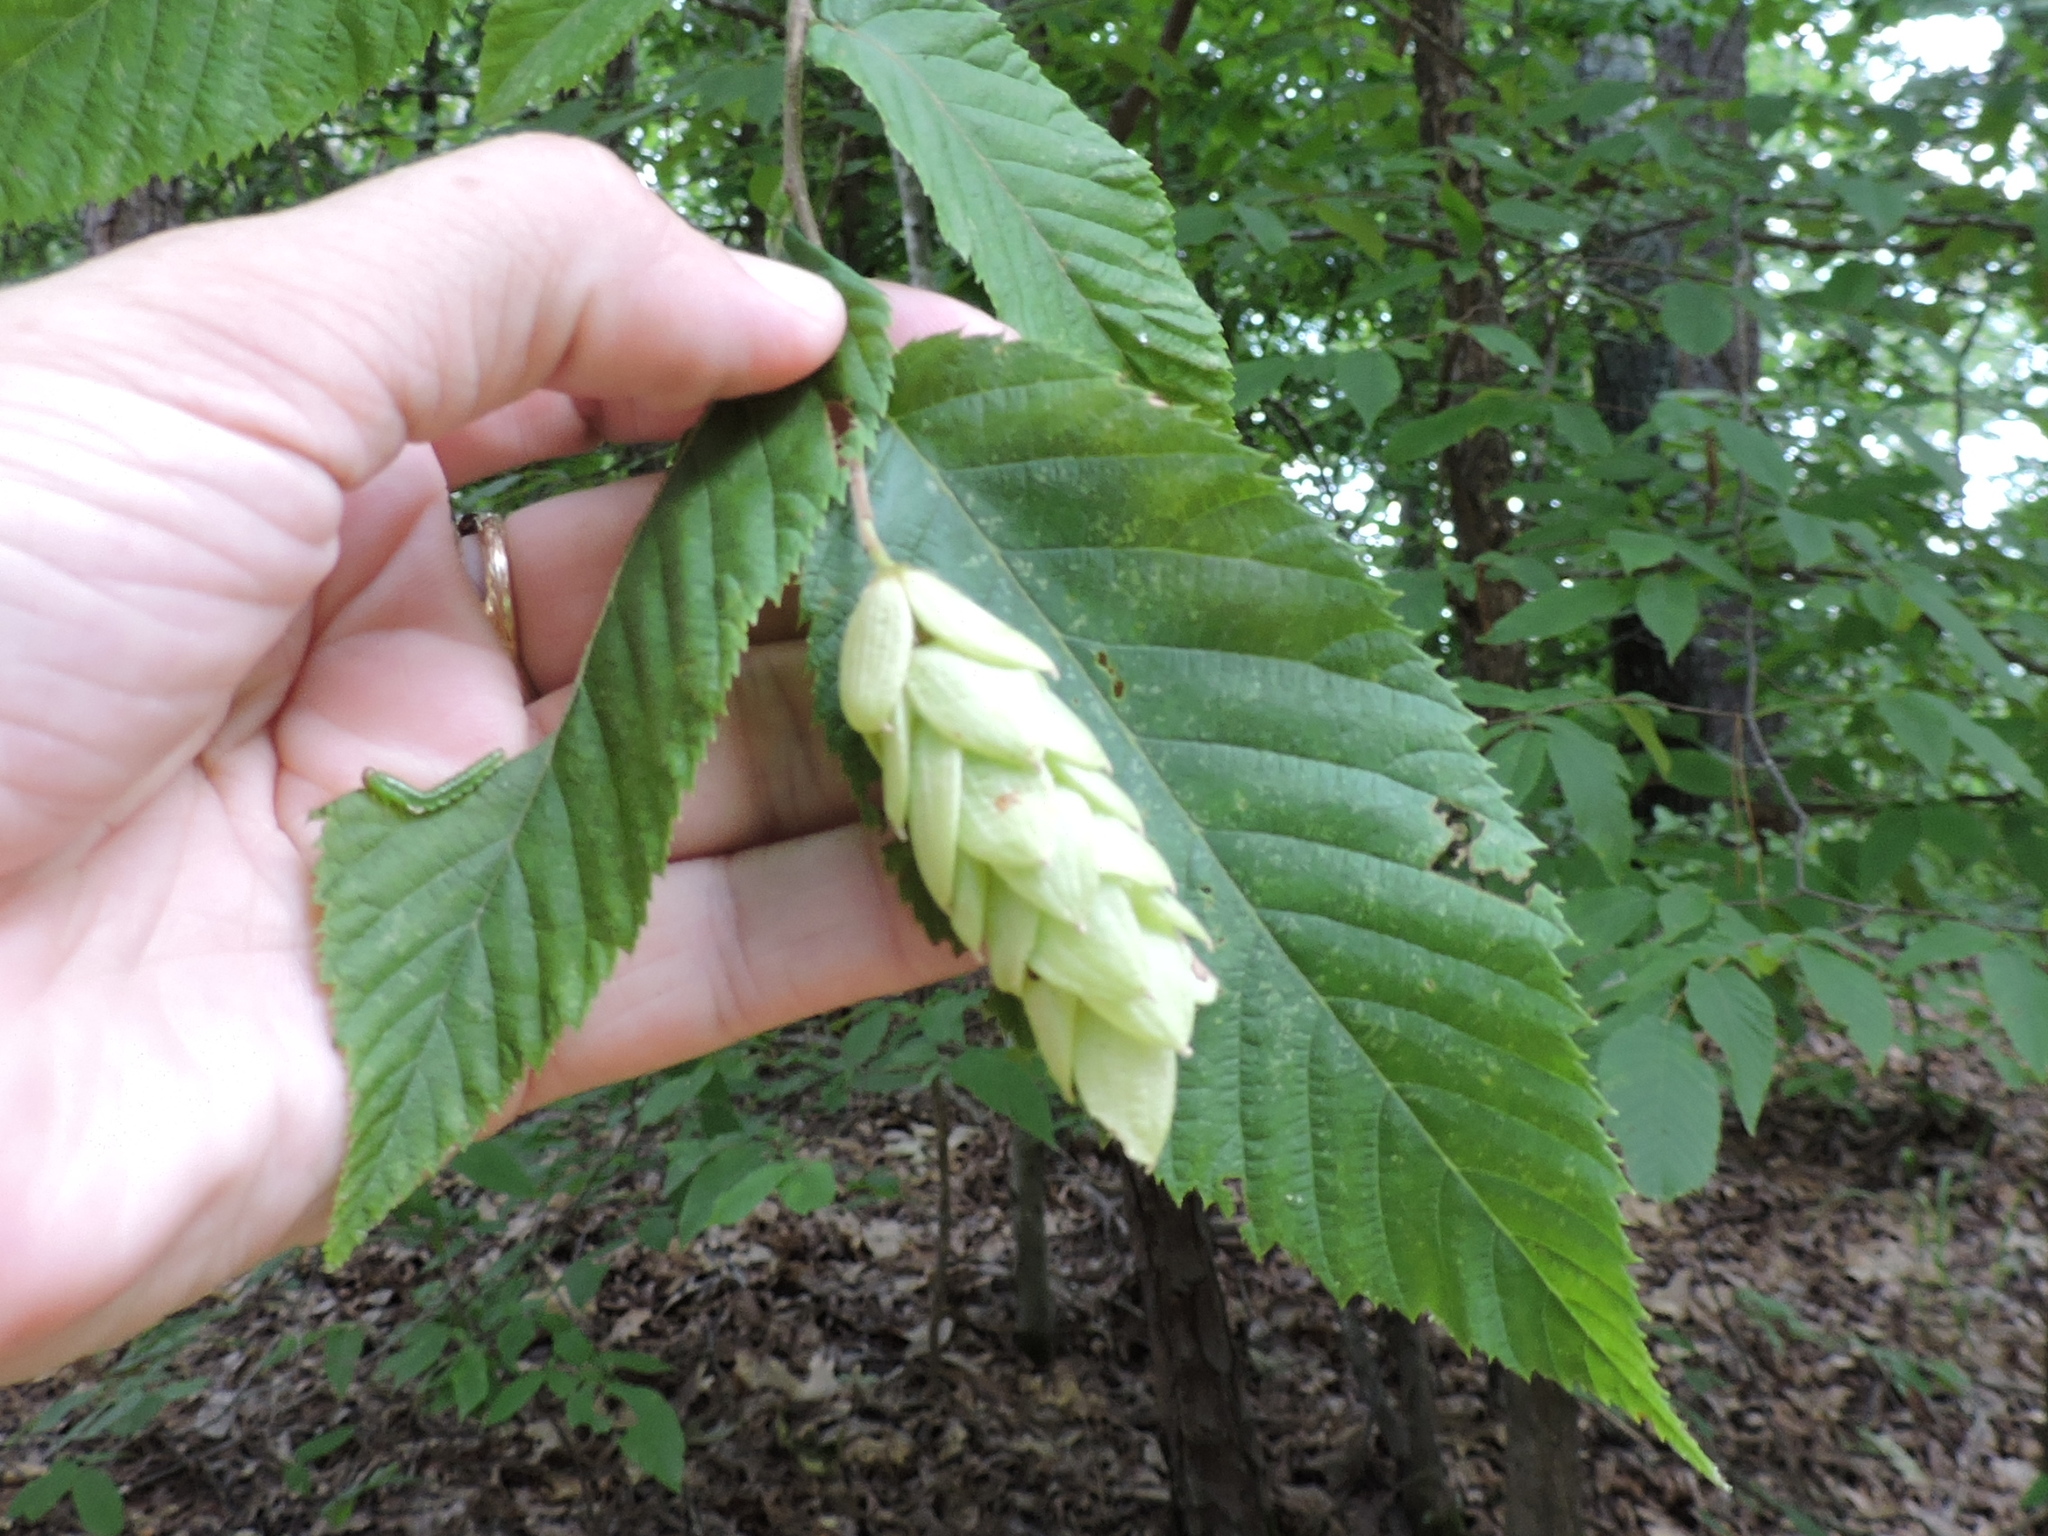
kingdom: Plantae
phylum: Tracheophyta
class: Magnoliopsida
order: Fagales
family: Betulaceae
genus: Ostrya
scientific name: Ostrya virginiana
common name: Ironwood
